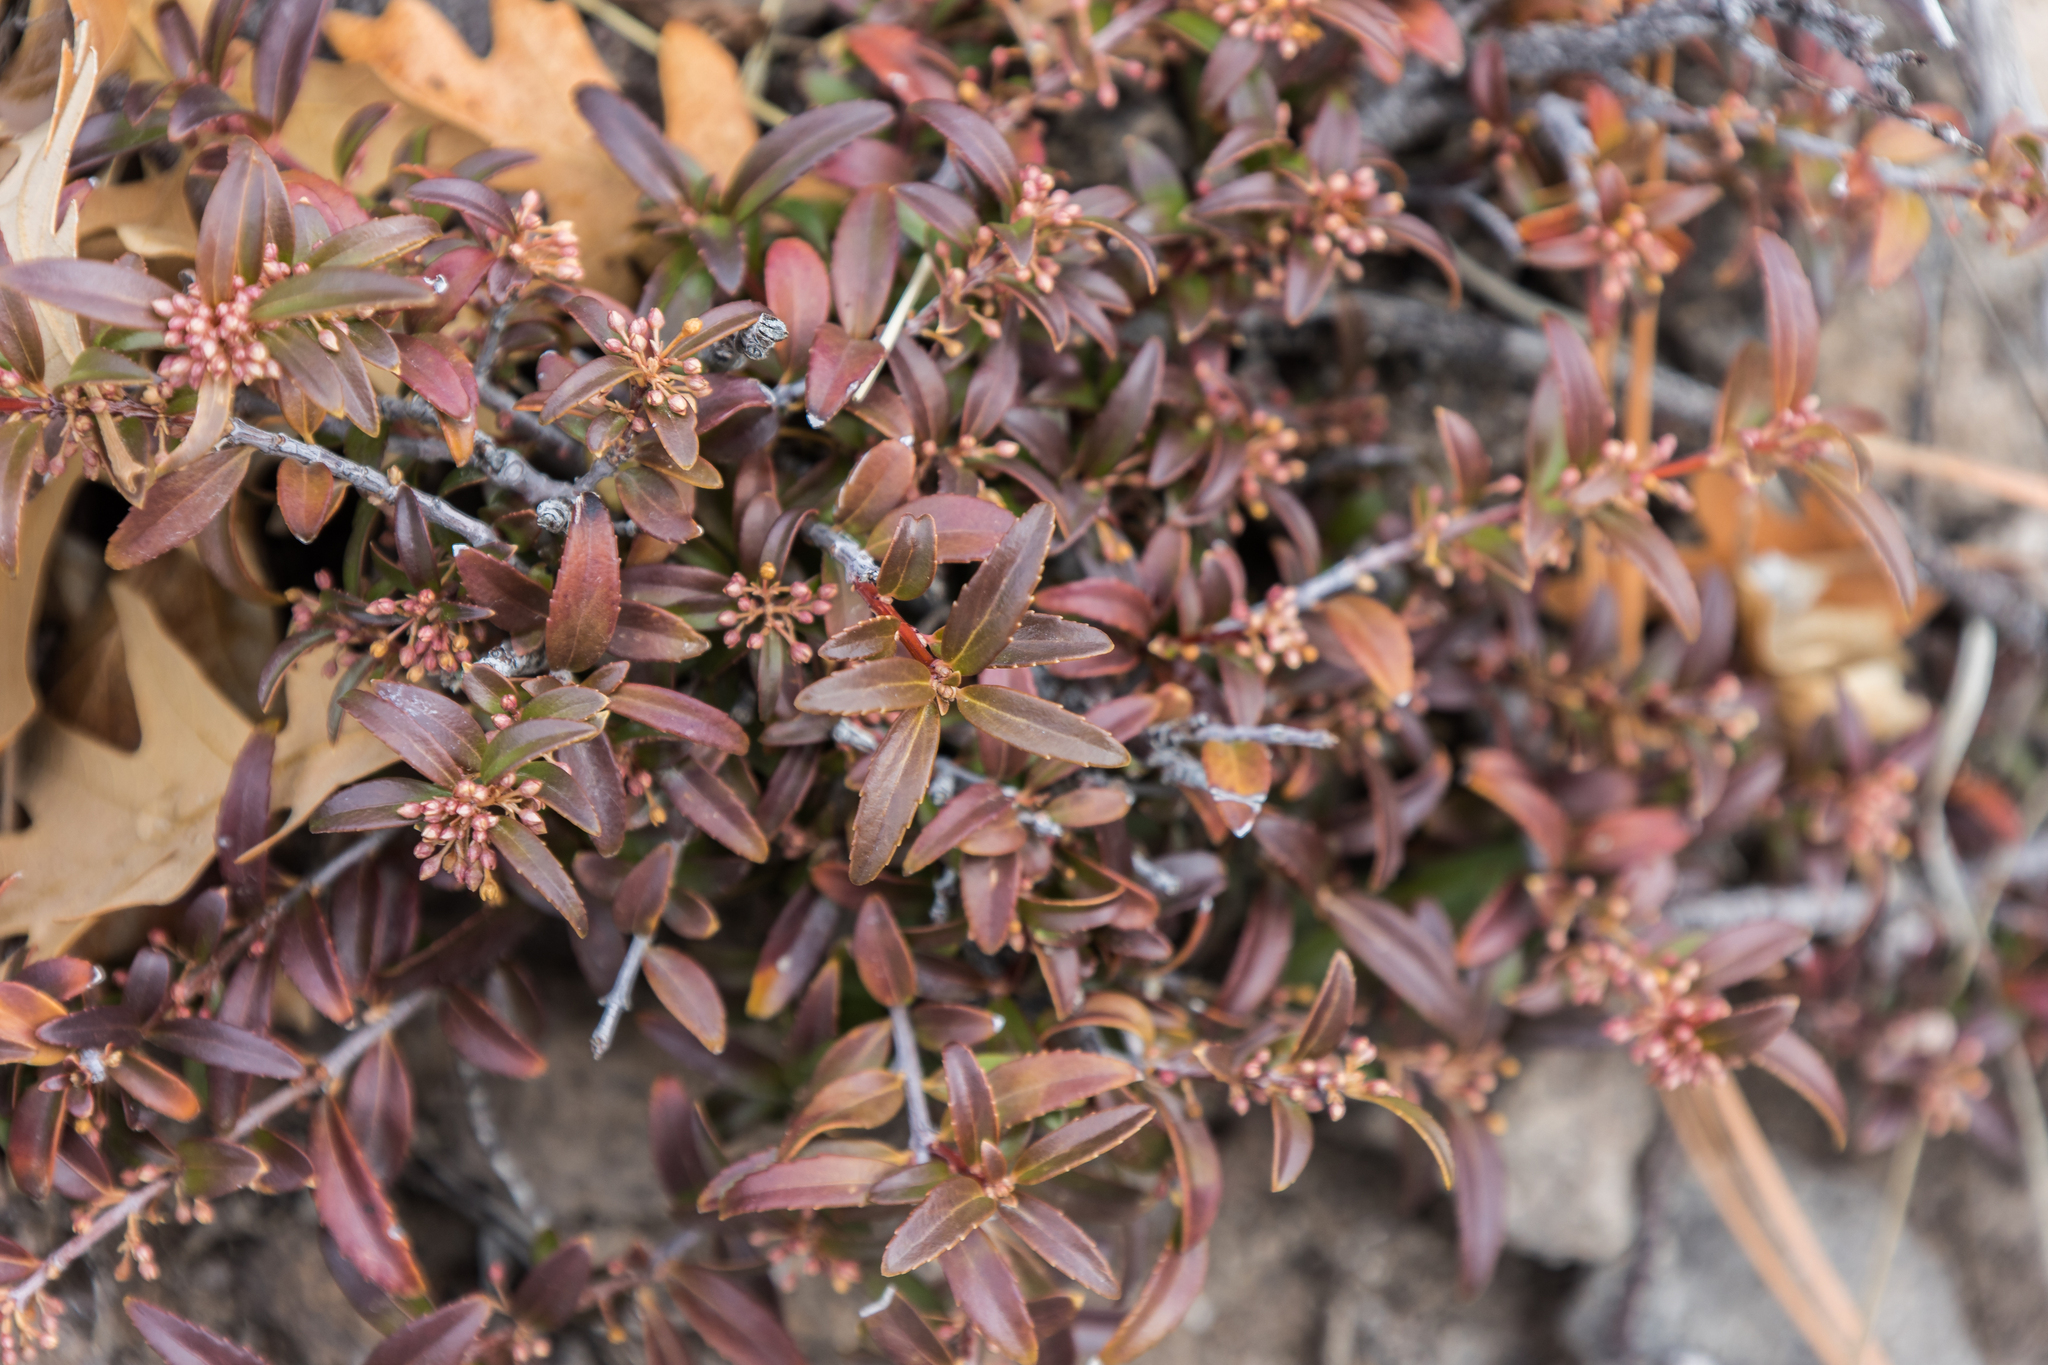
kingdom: Plantae
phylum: Tracheophyta
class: Magnoliopsida
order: Celastrales
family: Celastraceae
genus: Paxistima
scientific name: Paxistima myrsinites
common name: Mountain-lover
